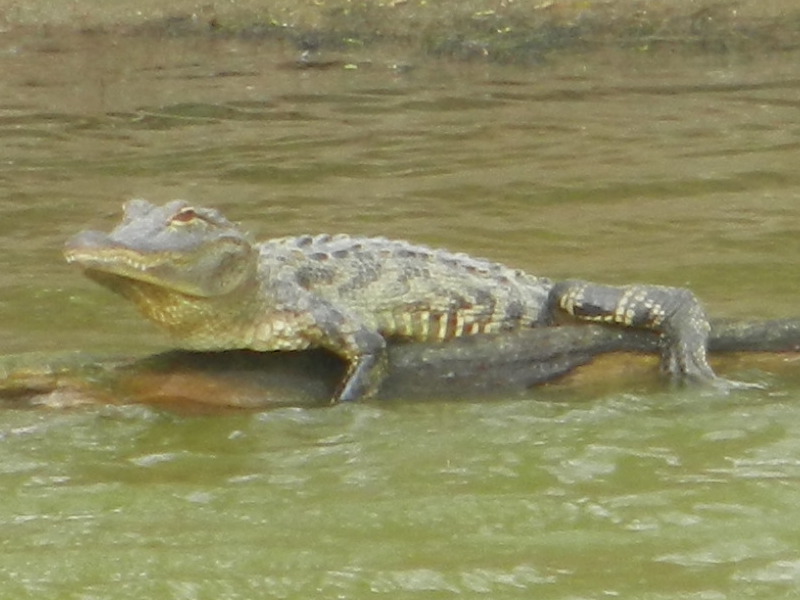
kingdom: Animalia
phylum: Chordata
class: Crocodylia
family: Alligatoridae
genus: Alligator
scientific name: Alligator mississippiensis
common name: American alligator
